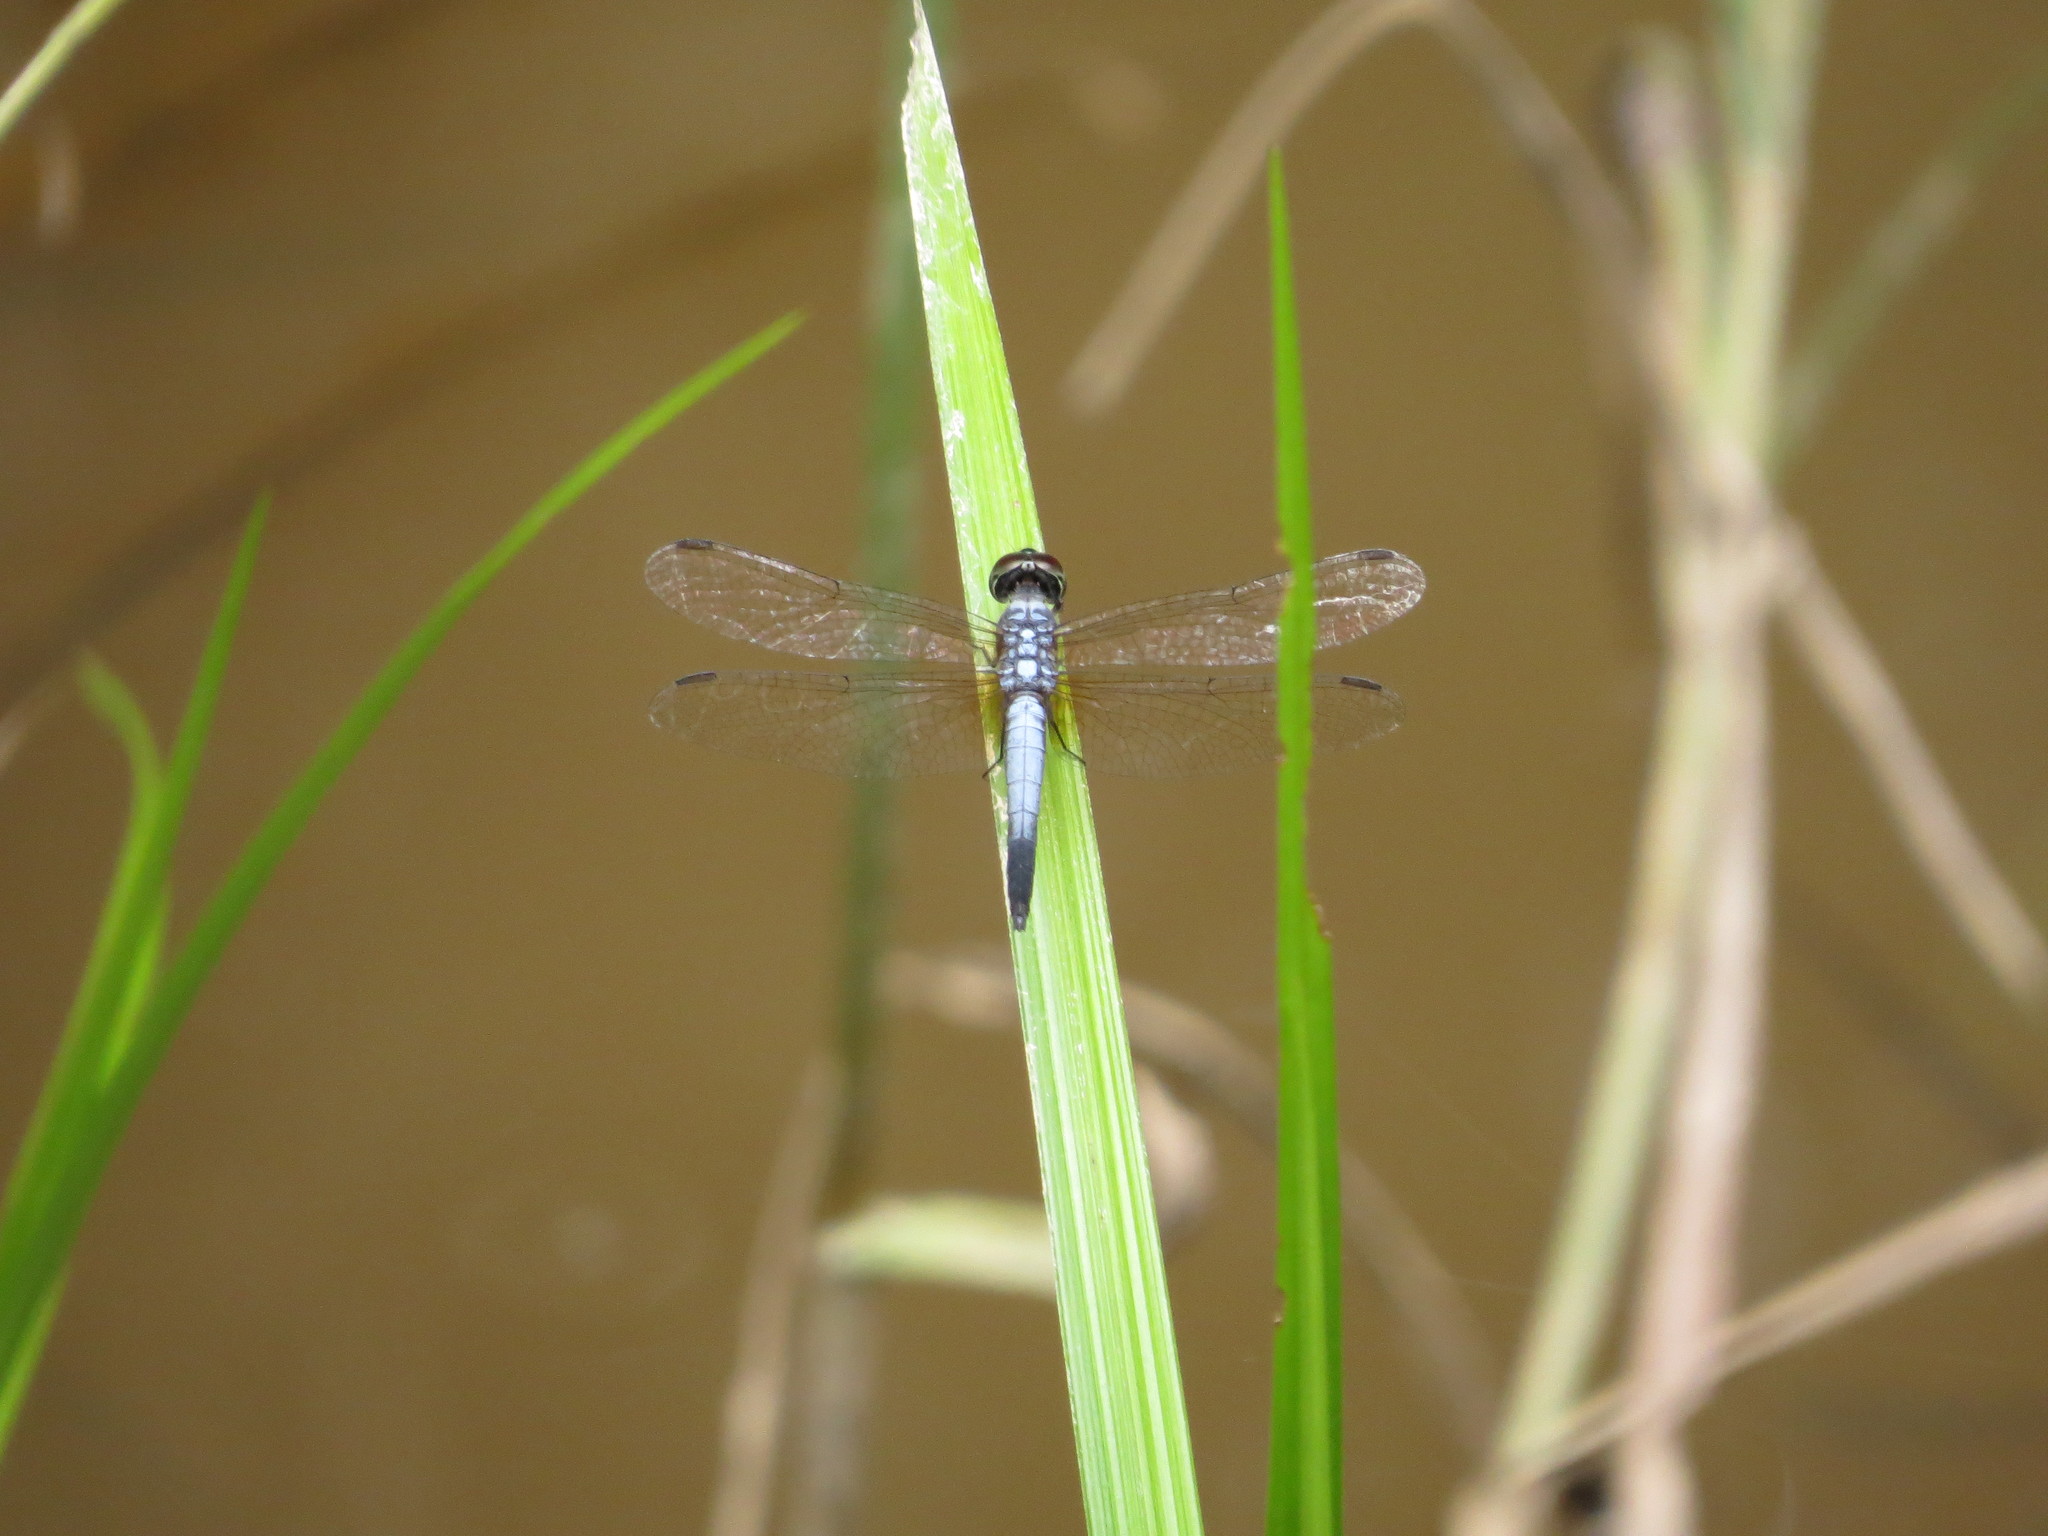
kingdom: Animalia
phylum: Arthropoda
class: Insecta
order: Odonata
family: Libellulidae
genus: Brachydiplax
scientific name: Brachydiplax chalybea
